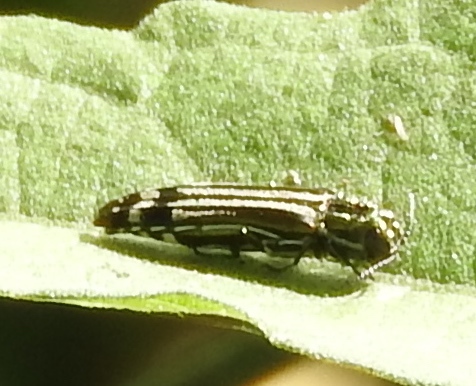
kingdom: Animalia
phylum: Arthropoda
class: Insecta
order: Coleoptera
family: Buprestidae
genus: Agrilus
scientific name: Agrilus catherinae
